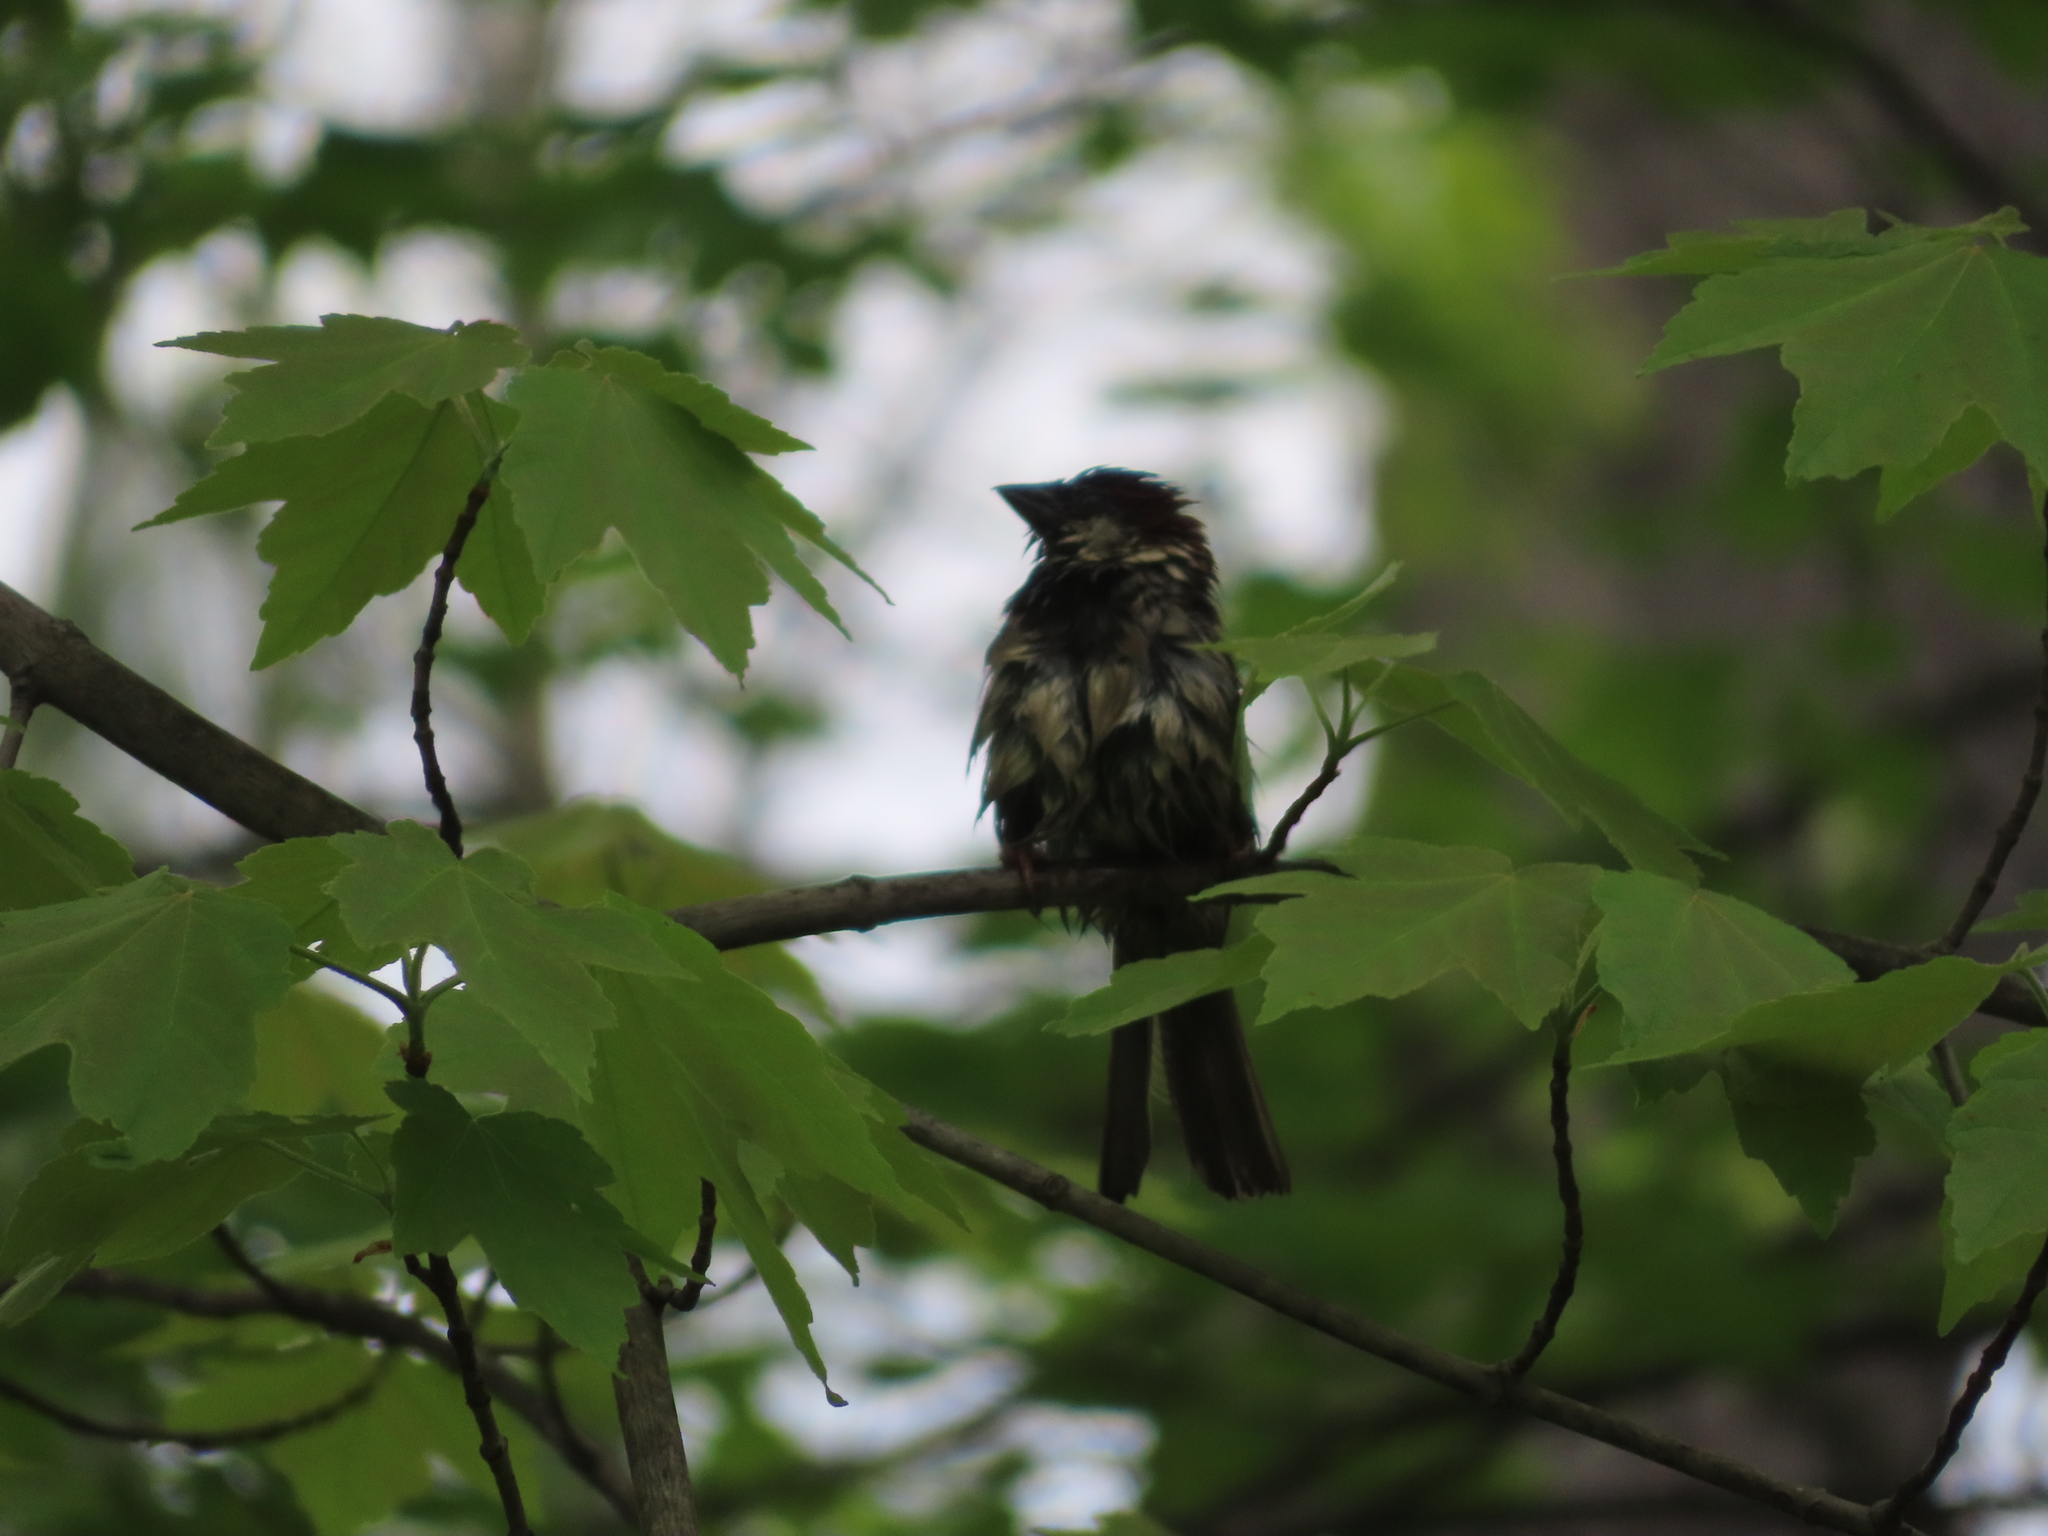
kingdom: Animalia
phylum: Chordata
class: Aves
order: Passeriformes
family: Passeridae
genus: Passer
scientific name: Passer domesticus
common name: House sparrow
